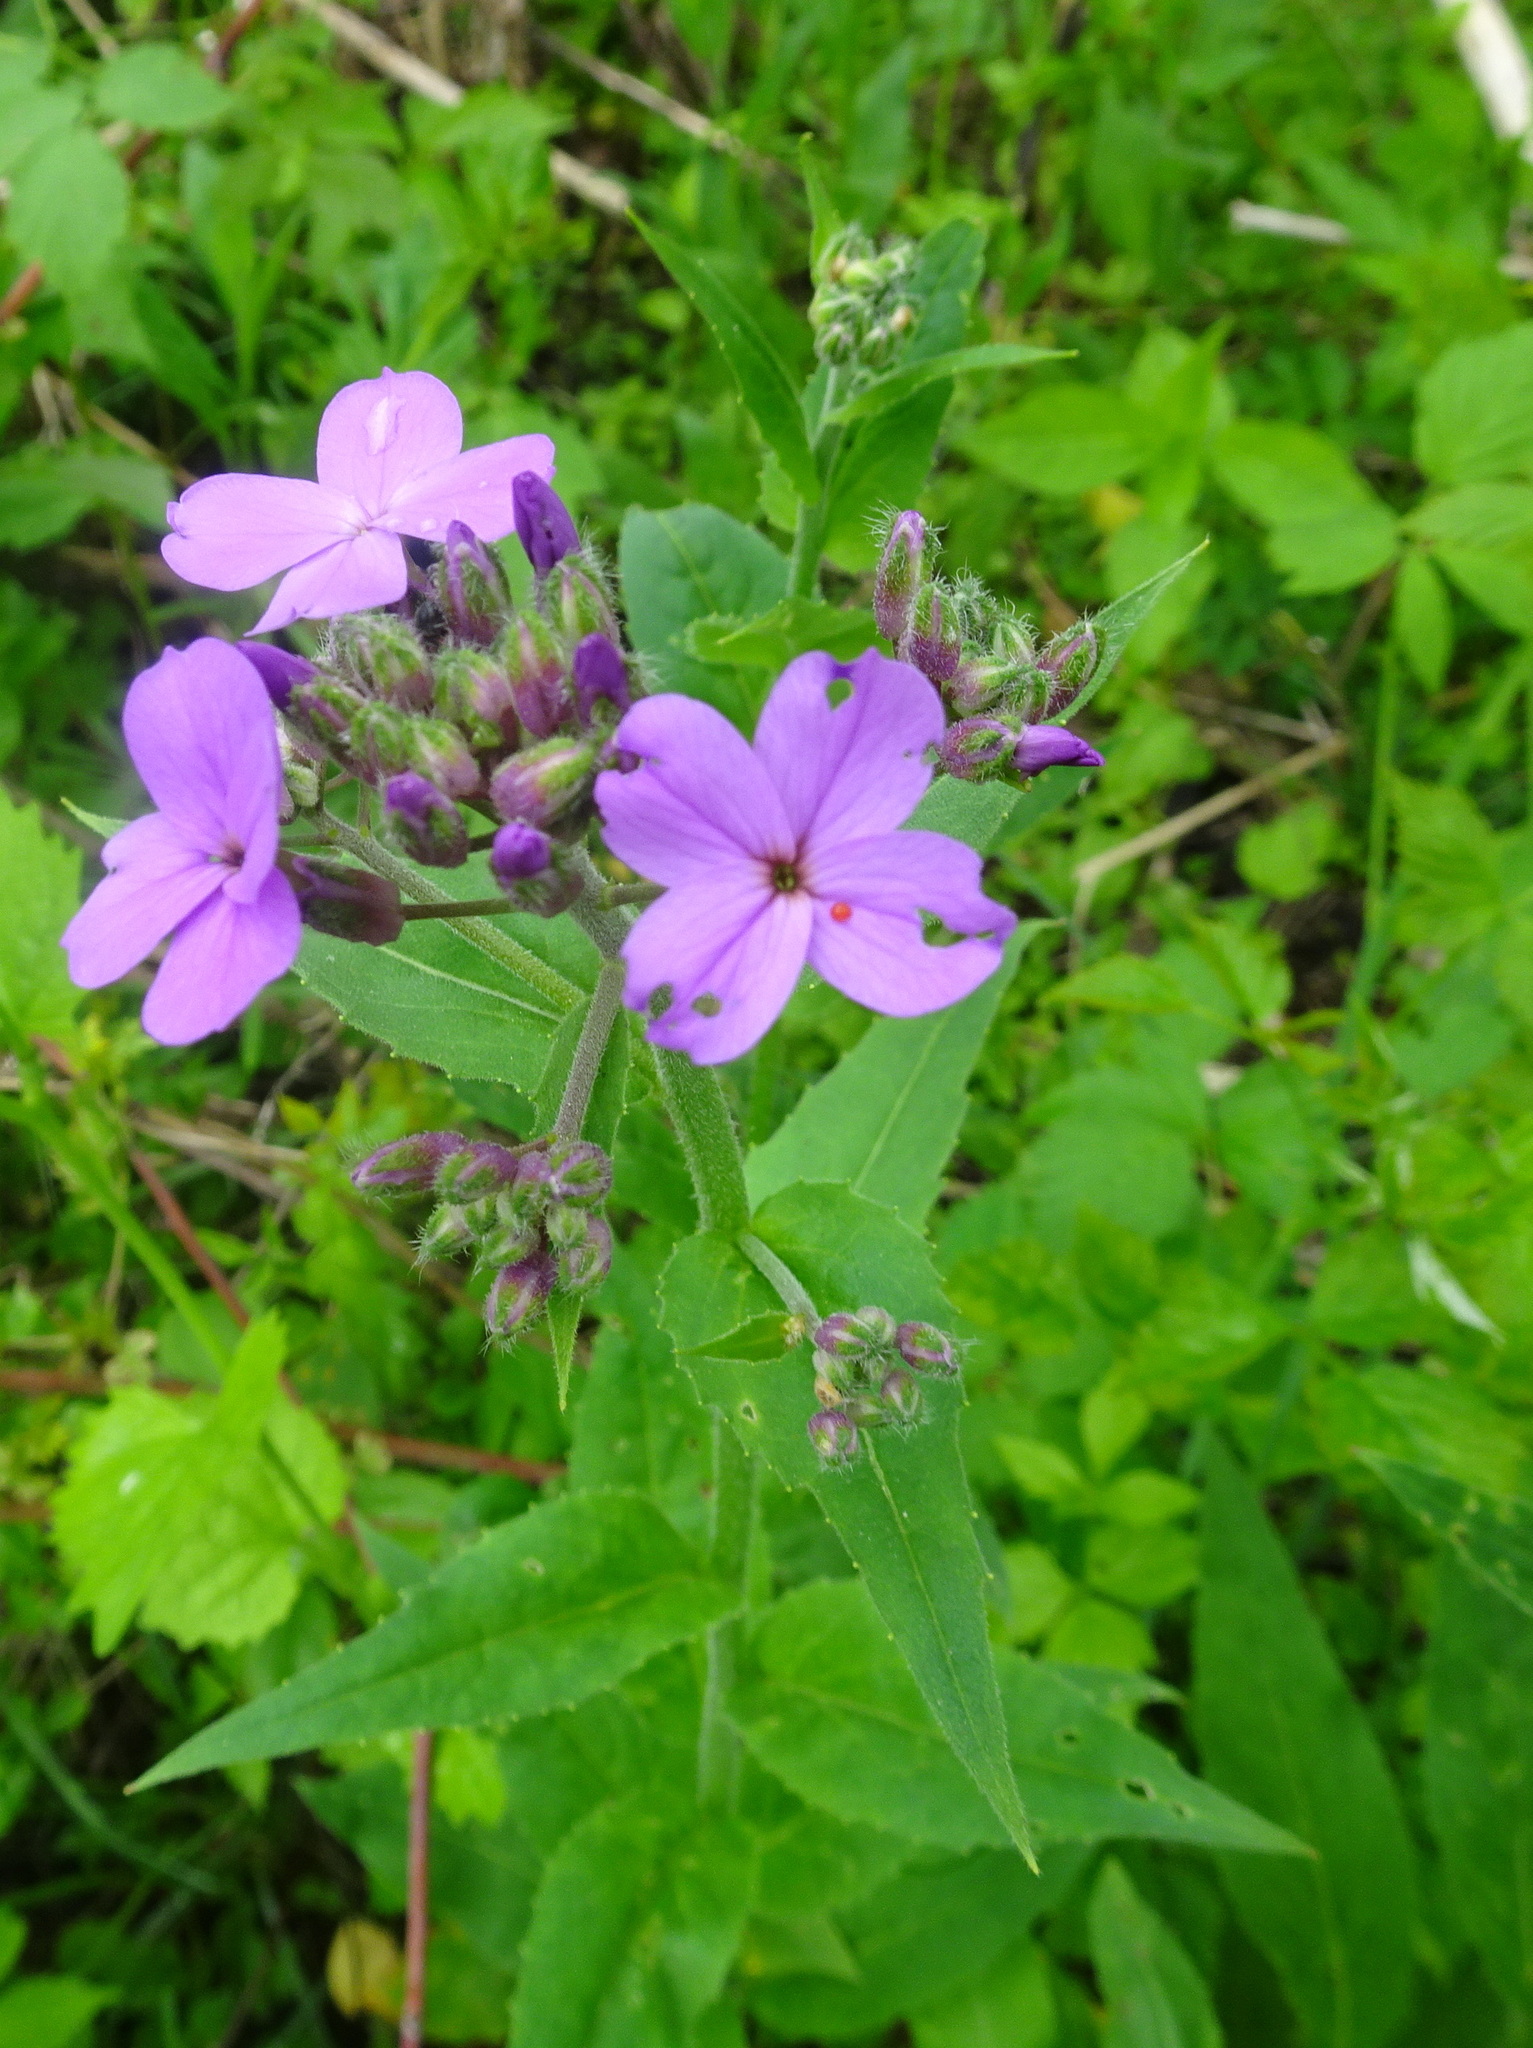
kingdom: Plantae
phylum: Tracheophyta
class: Magnoliopsida
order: Brassicales
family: Brassicaceae
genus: Hesperis
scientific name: Hesperis matronalis
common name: Dame's-violet
